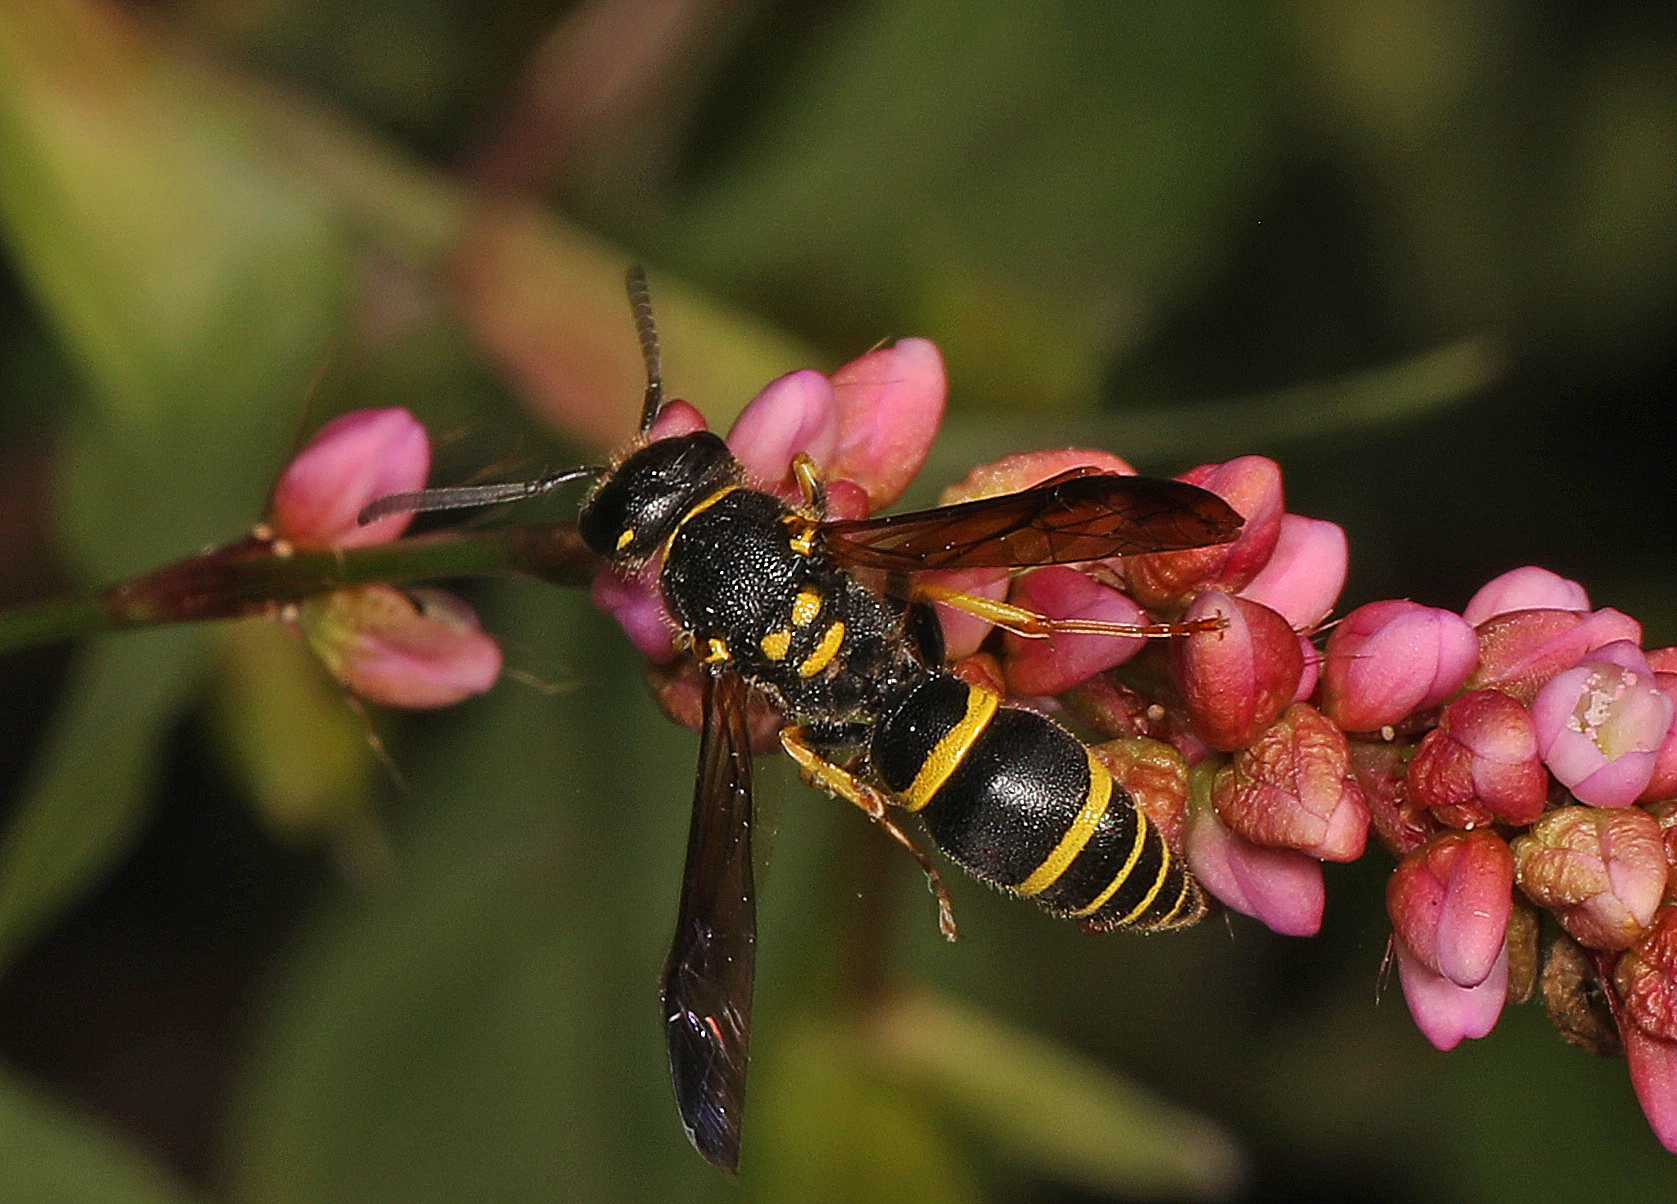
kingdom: Animalia
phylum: Arthropoda
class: Insecta
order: Hymenoptera
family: Vespidae
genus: Ancistrocerus
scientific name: Ancistrocerus adiabatus
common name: Bramble mason wasp
